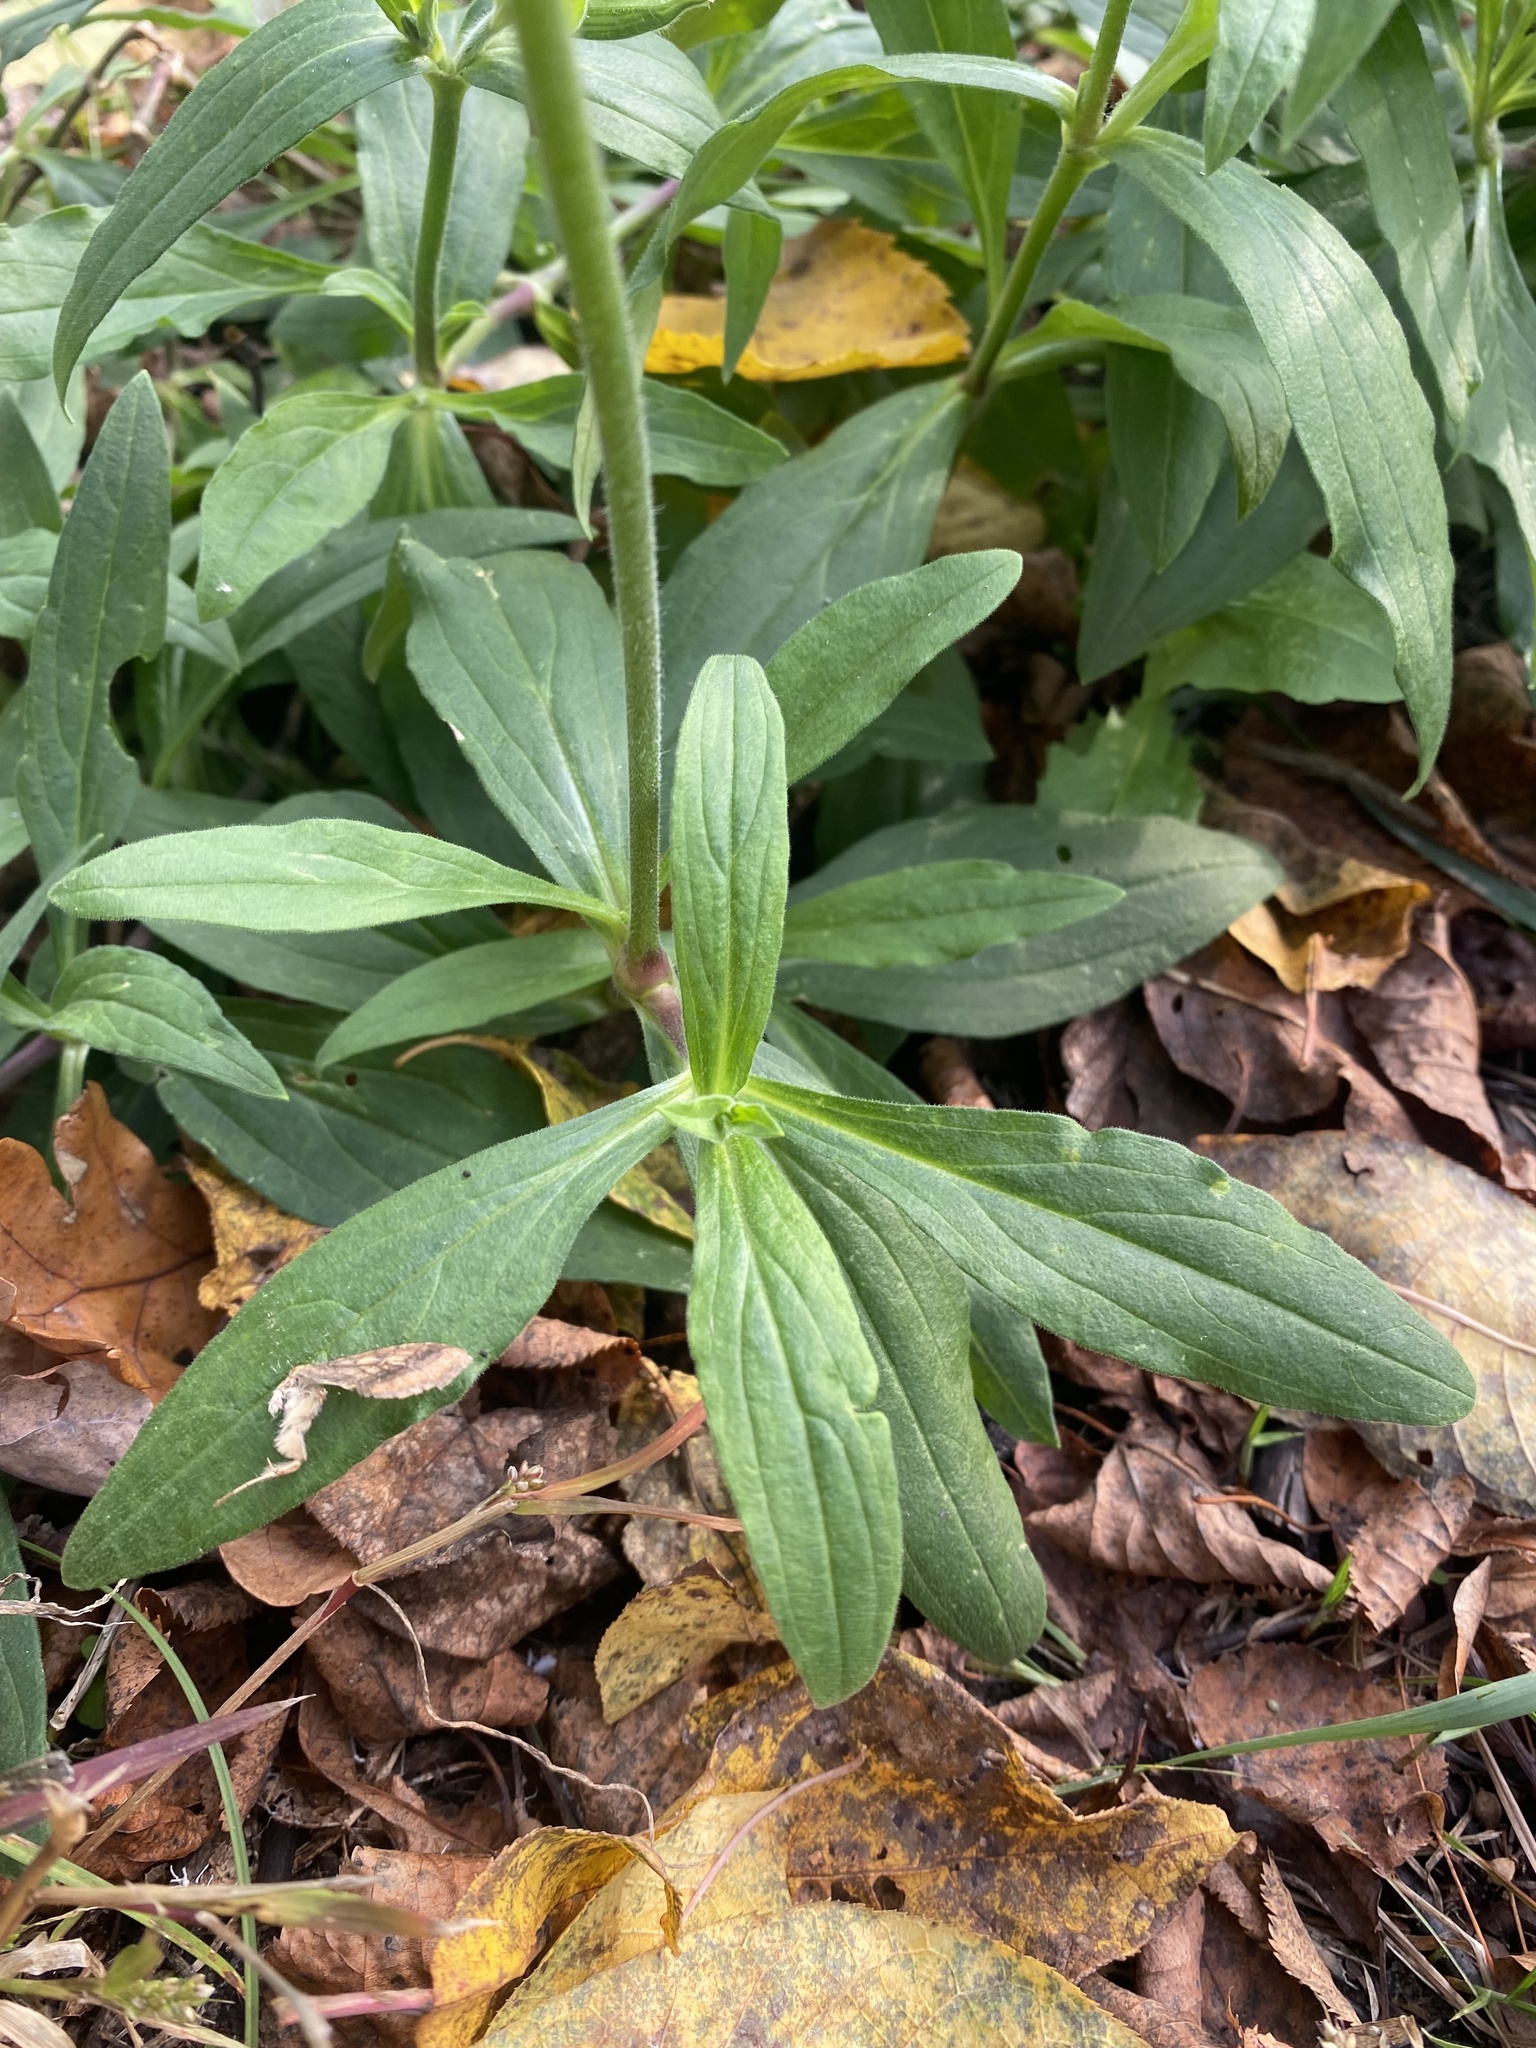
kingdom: Plantae
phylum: Tracheophyta
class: Magnoliopsida
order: Caryophyllales
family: Caryophyllaceae
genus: Silene
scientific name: Silene latifolia
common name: White campion
